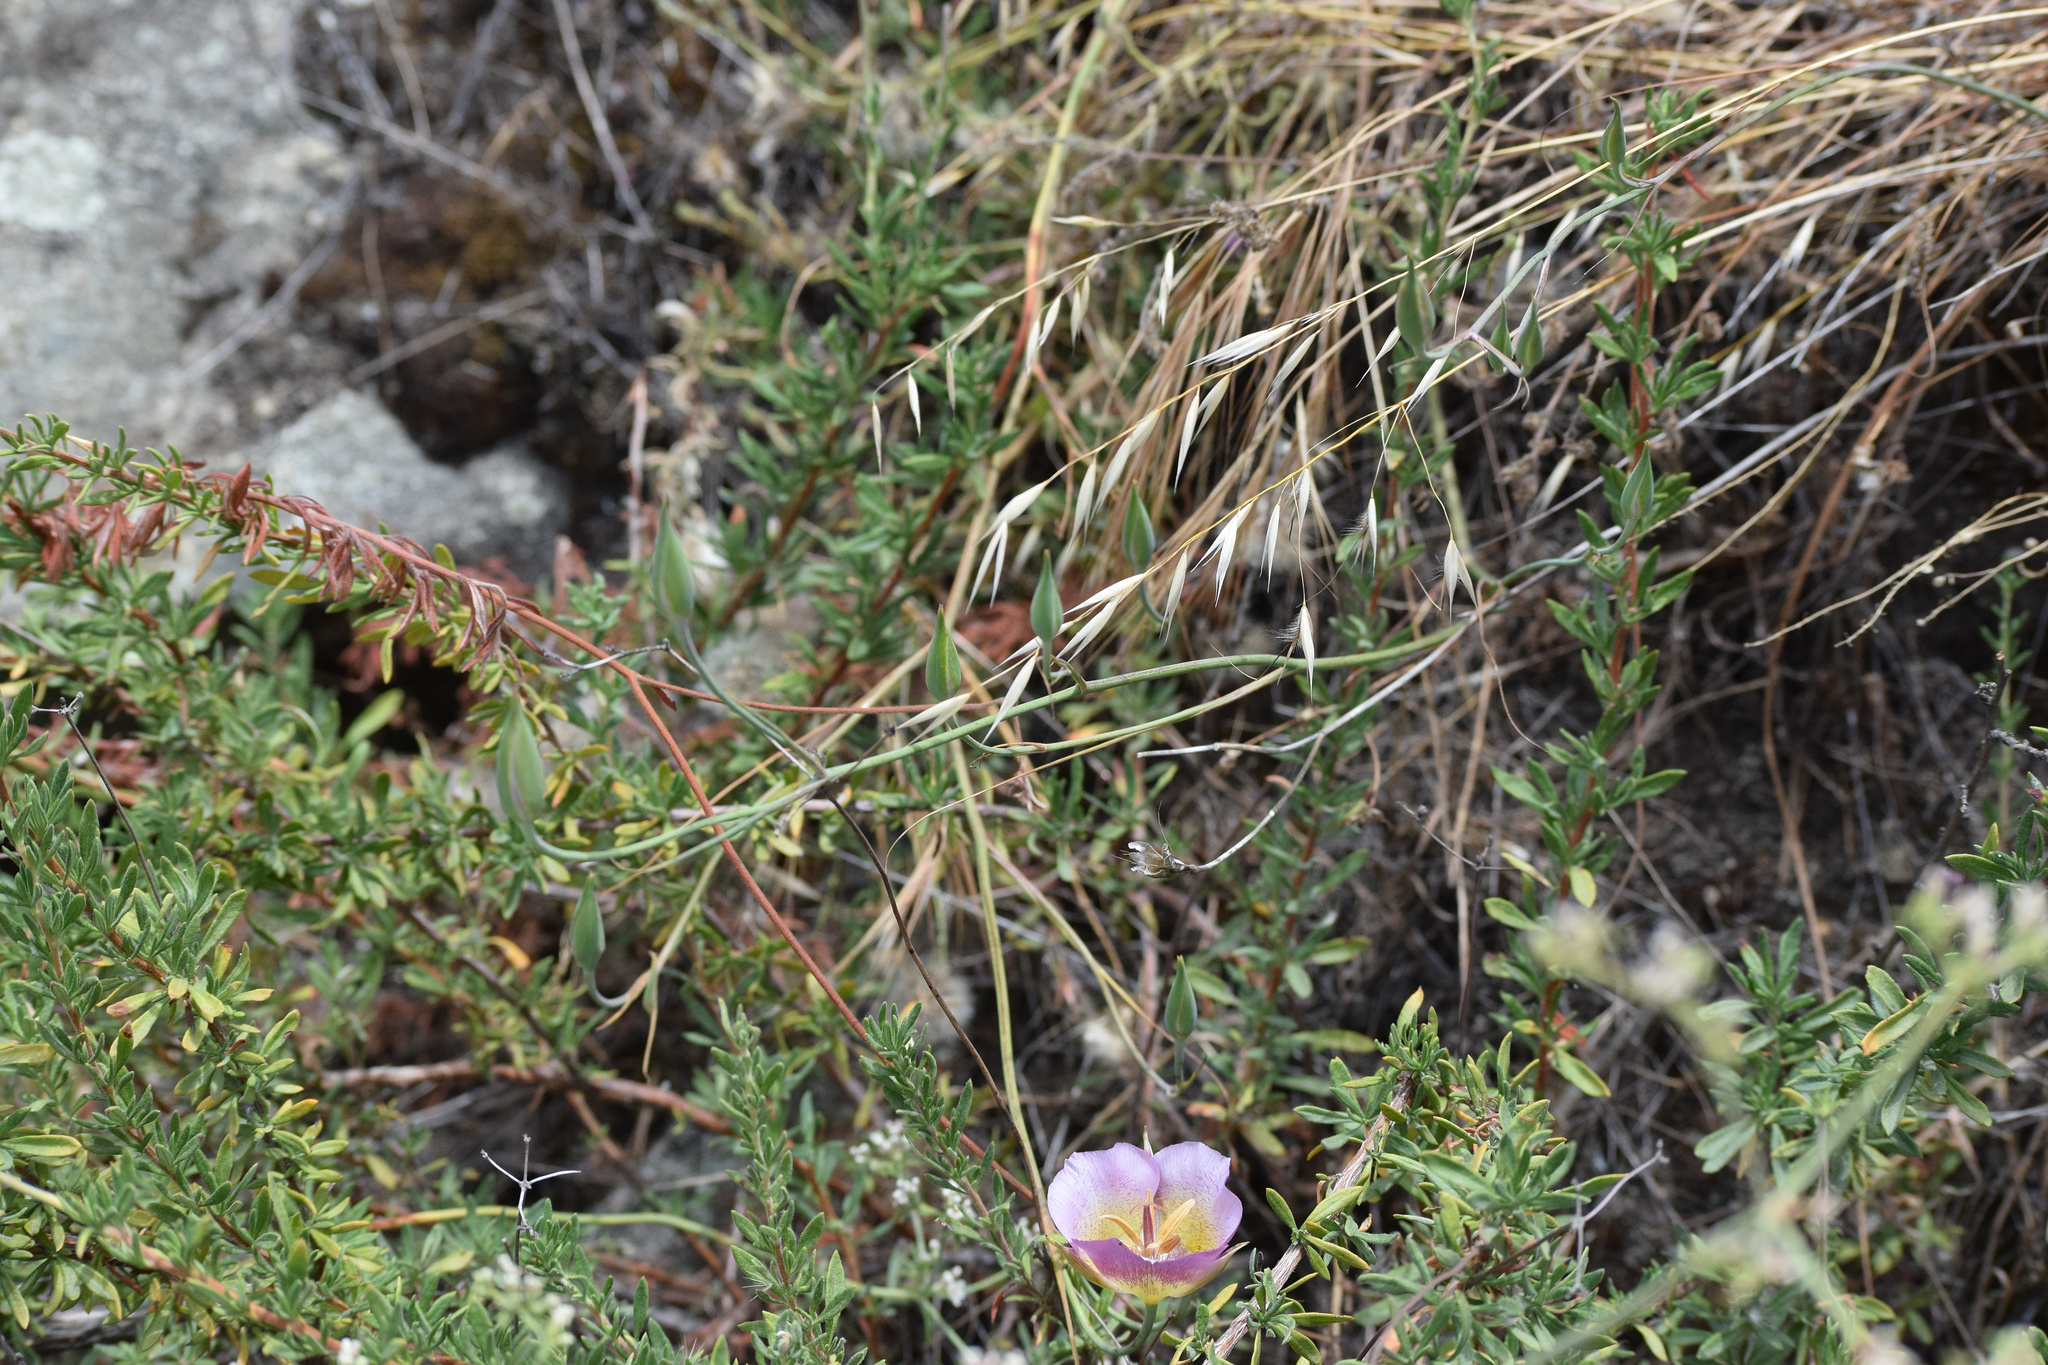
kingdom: Plantae
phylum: Tracheophyta
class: Liliopsida
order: Liliales
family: Liliaceae
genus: Calochortus
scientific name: Calochortus plummerae
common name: Plummer's mariposa-lily
